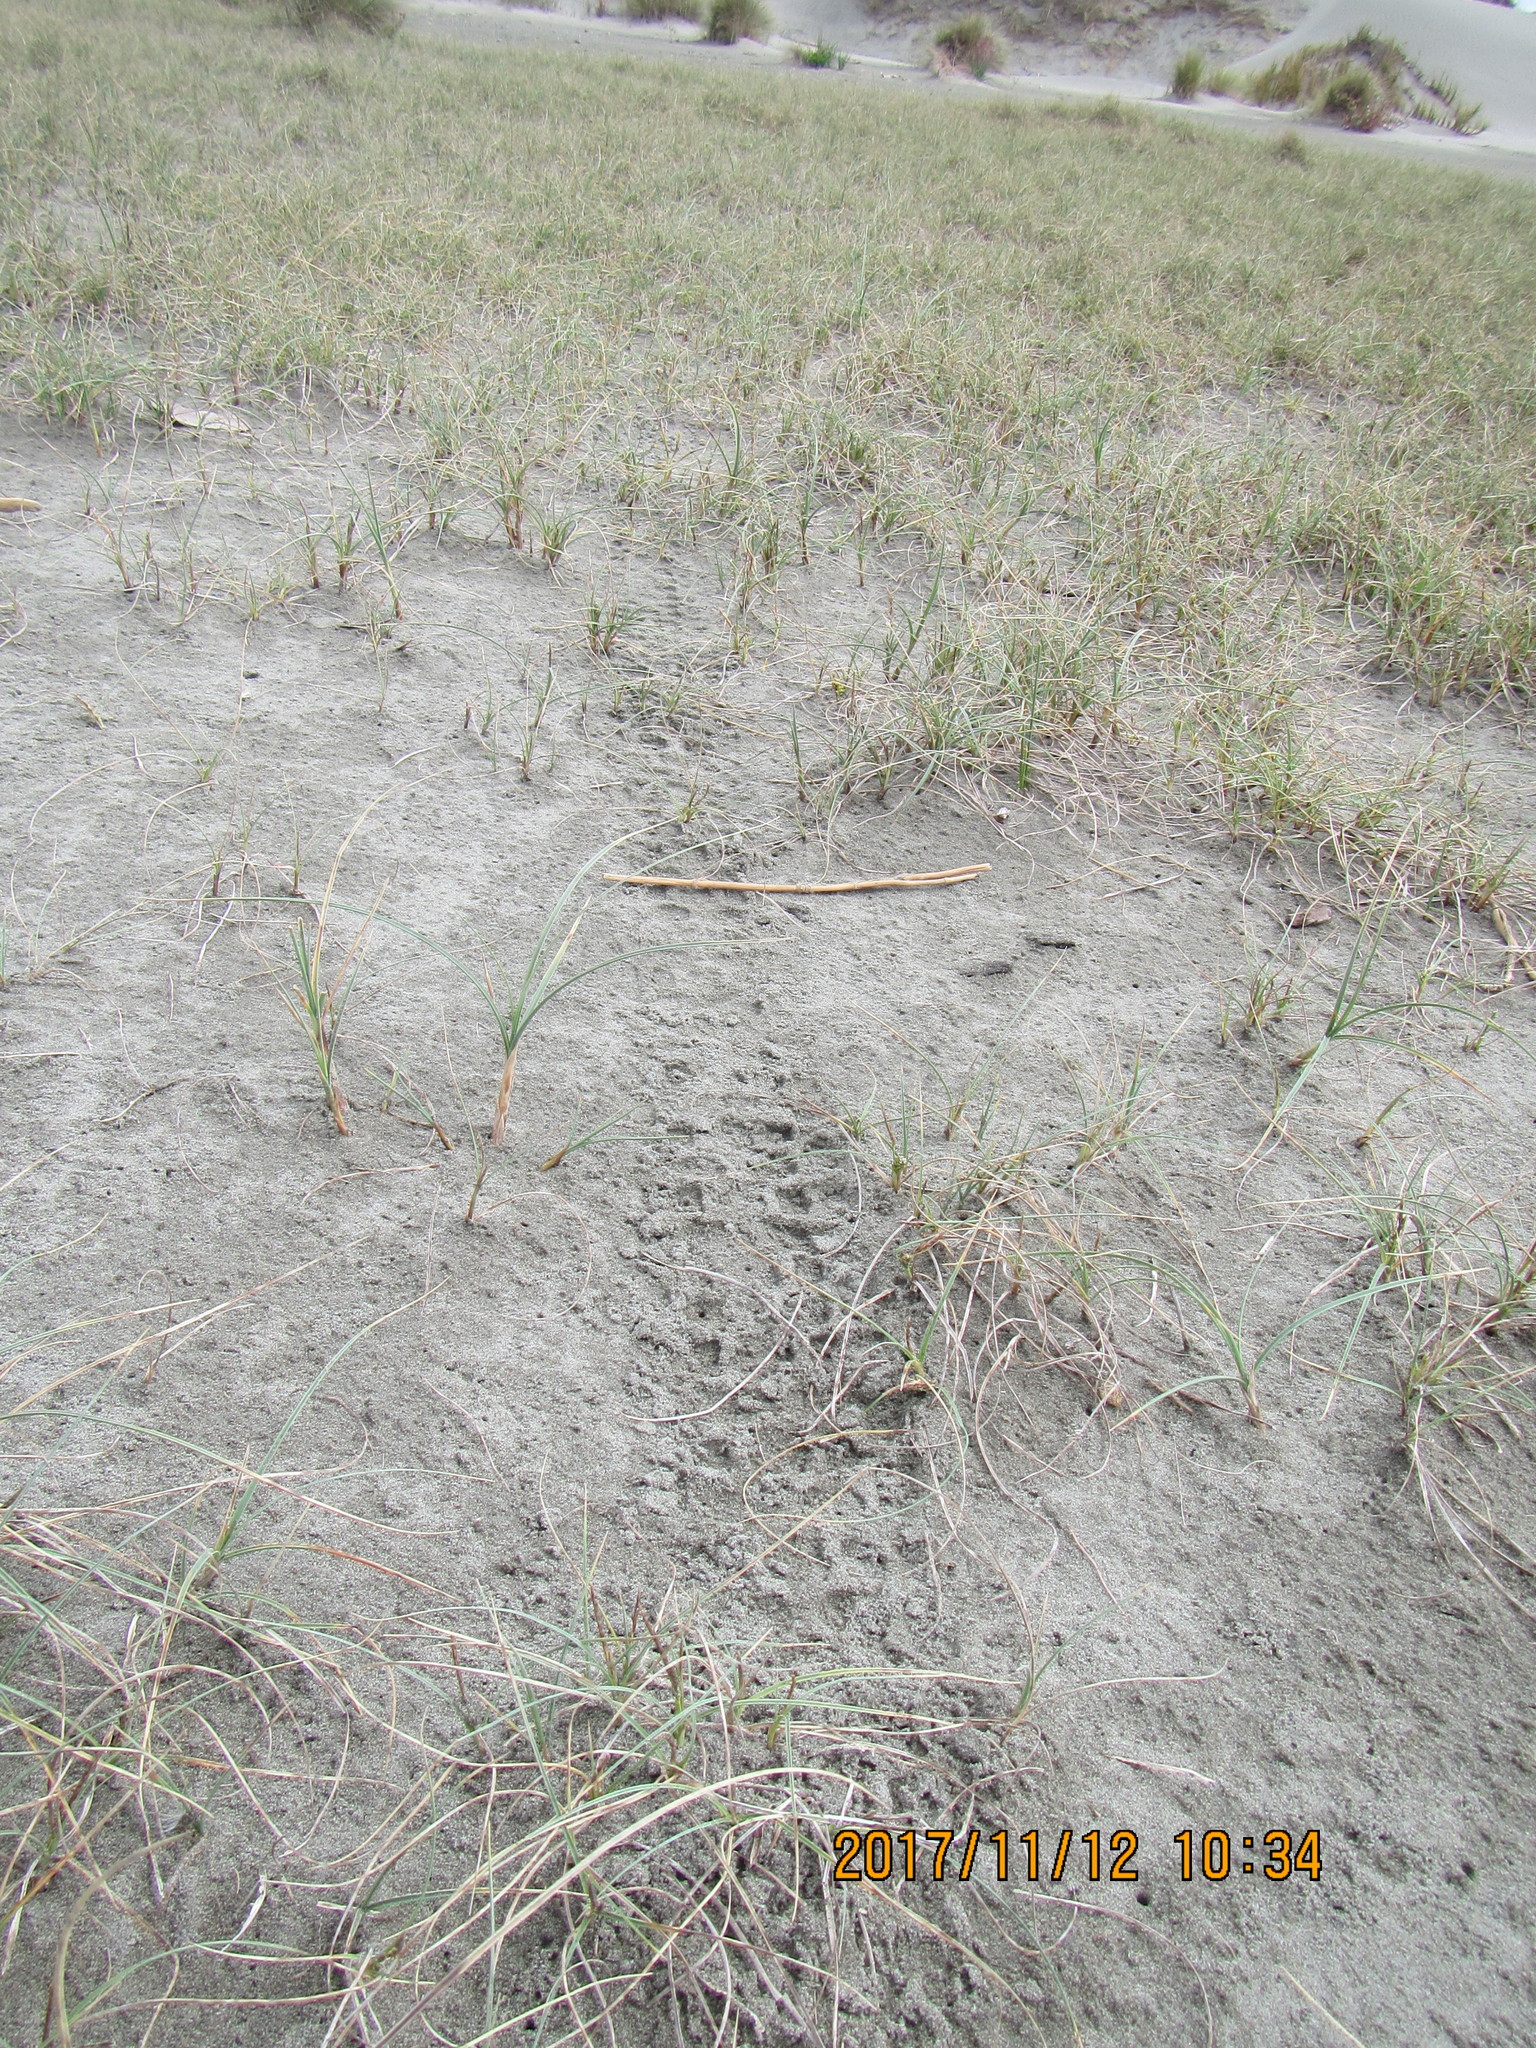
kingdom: Plantae
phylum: Tracheophyta
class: Liliopsida
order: Poales
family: Cyperaceae
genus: Carex
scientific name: Carex pumila
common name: Dwarf sedge
